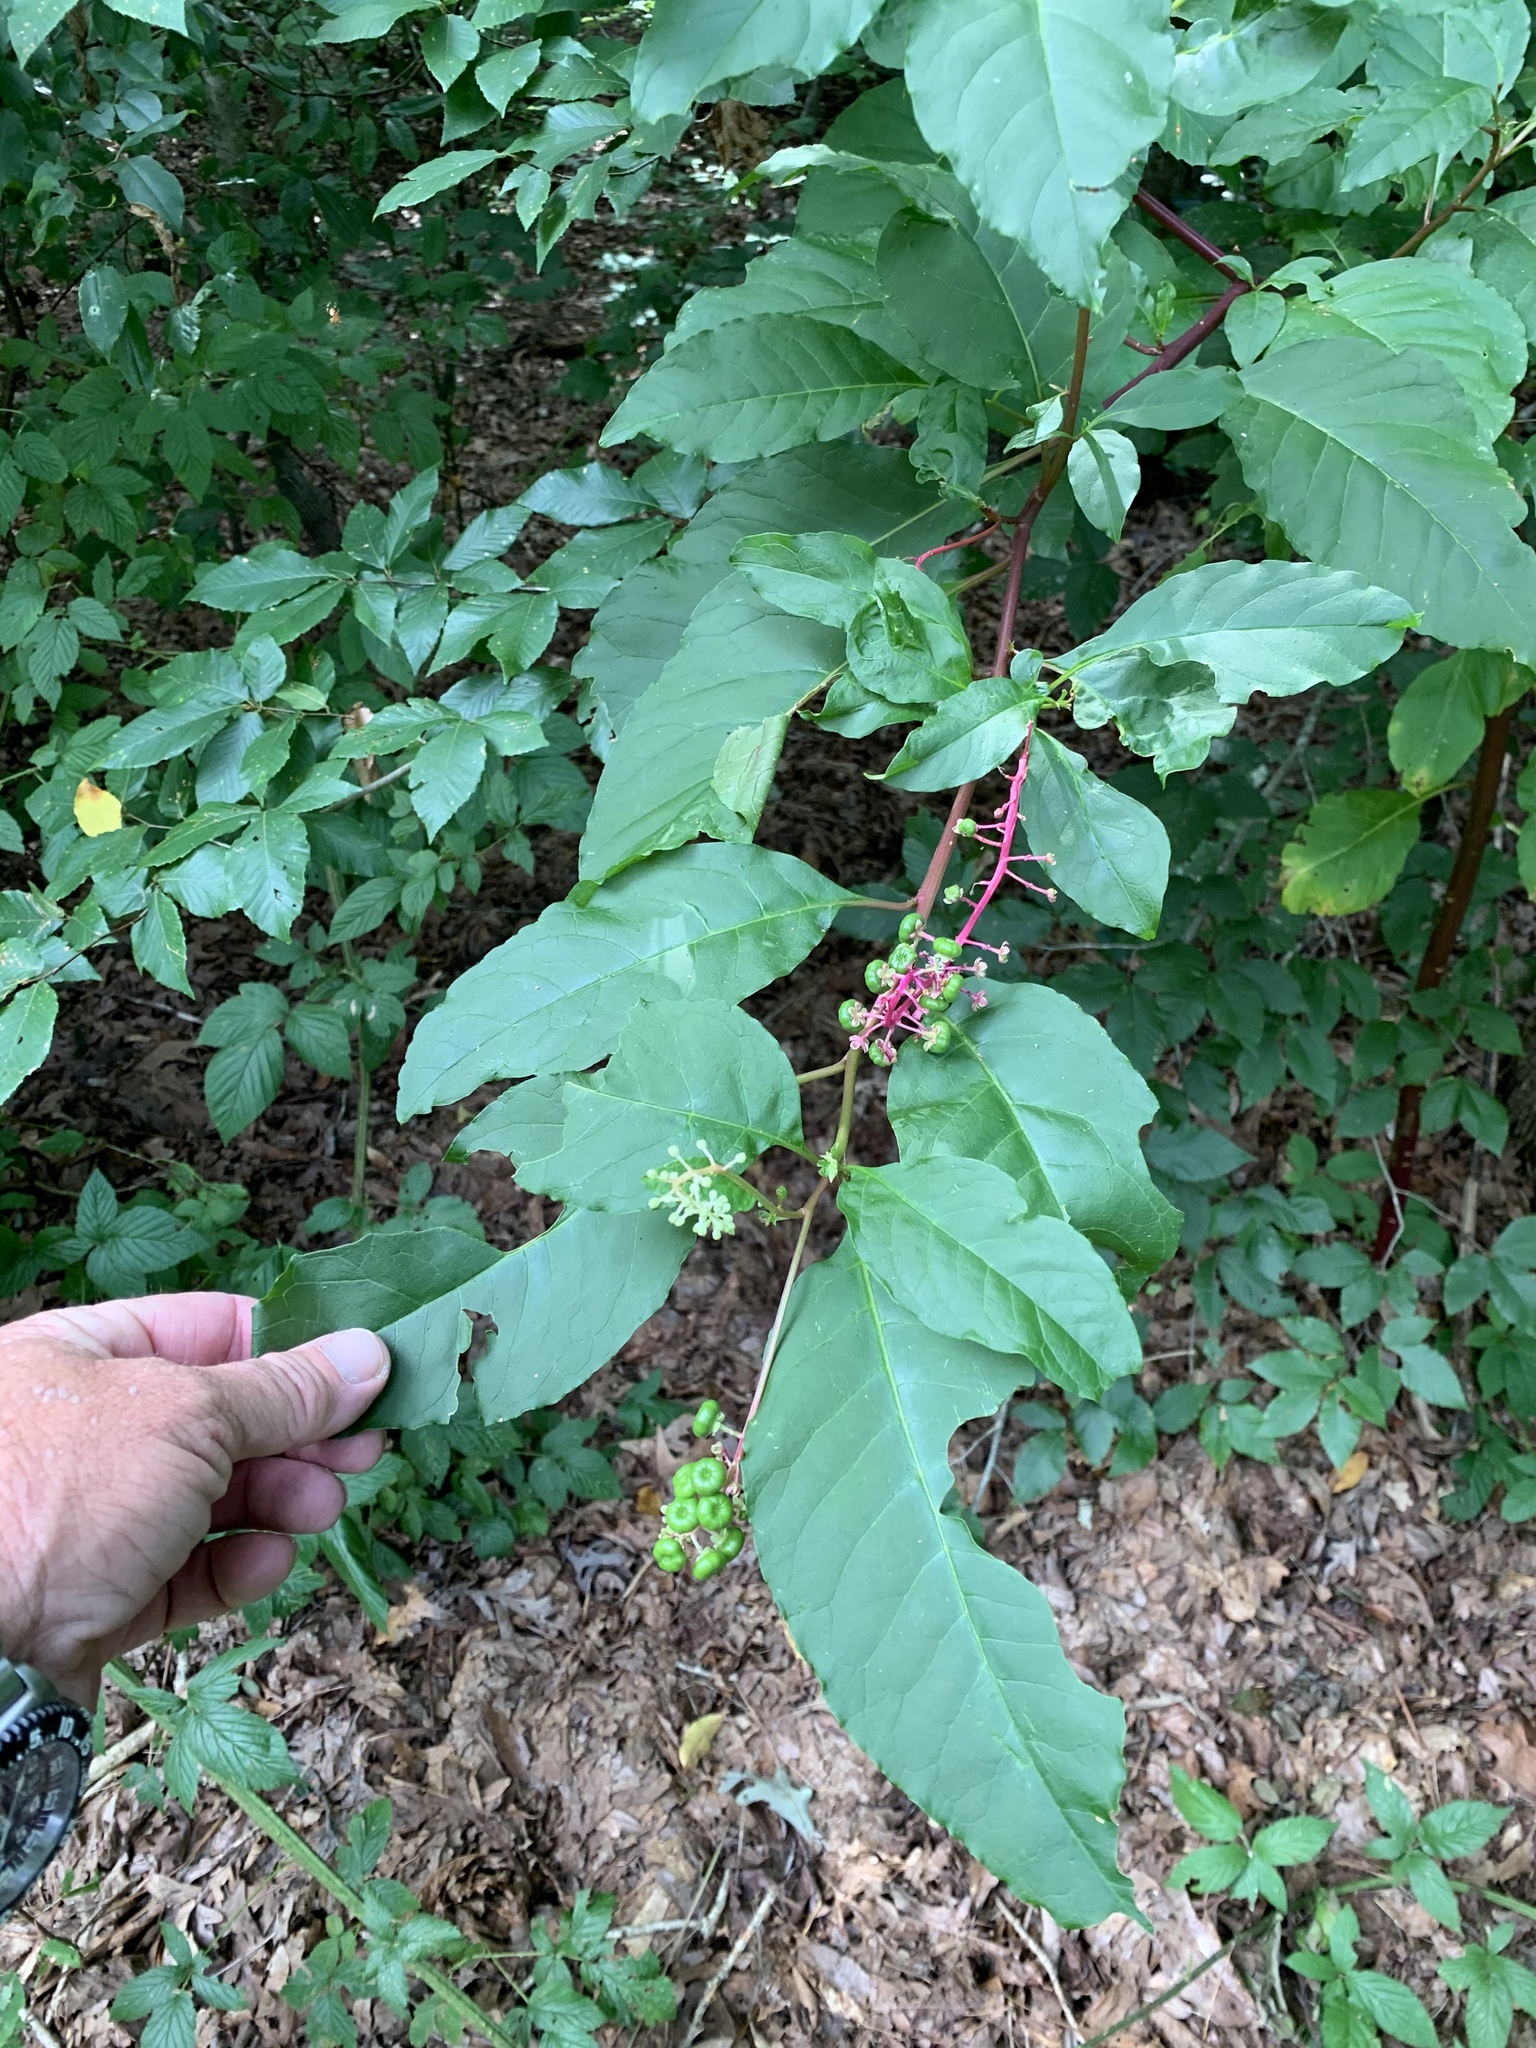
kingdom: Plantae
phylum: Tracheophyta
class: Magnoliopsida
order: Caryophyllales
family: Phytolaccaceae
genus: Phytolacca
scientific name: Phytolacca americana
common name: American pokeweed
